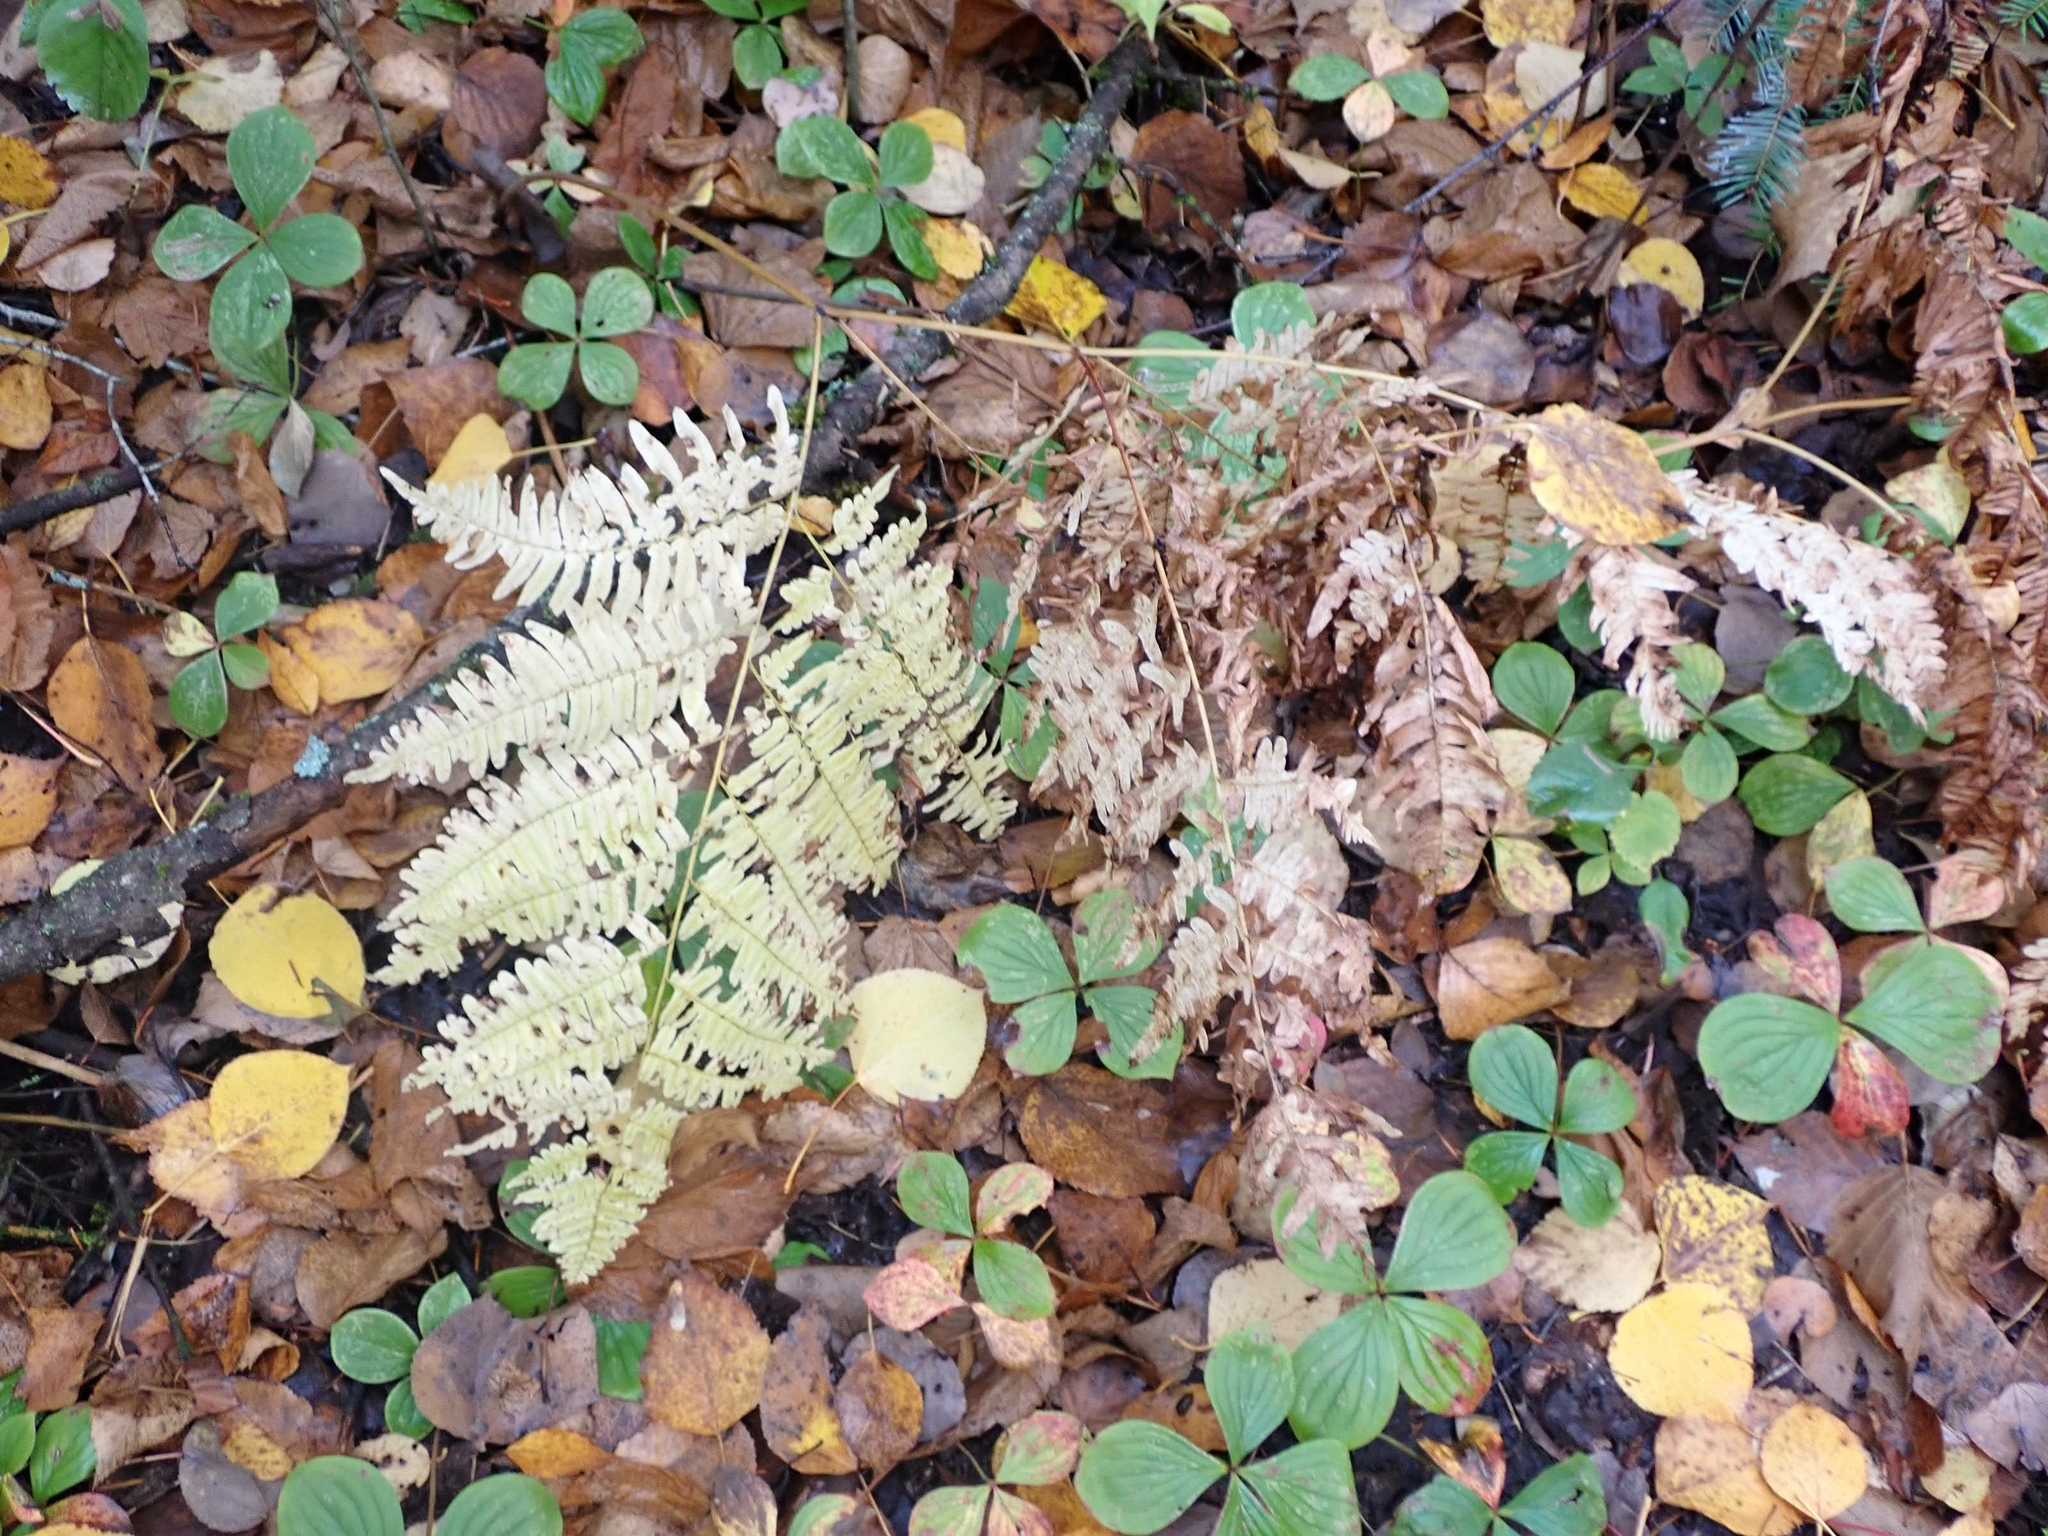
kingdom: Plantae
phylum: Tracheophyta
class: Polypodiopsida
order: Polypodiales
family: Dennstaedtiaceae
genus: Pteridium
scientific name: Pteridium aquilinum
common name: Bracken
